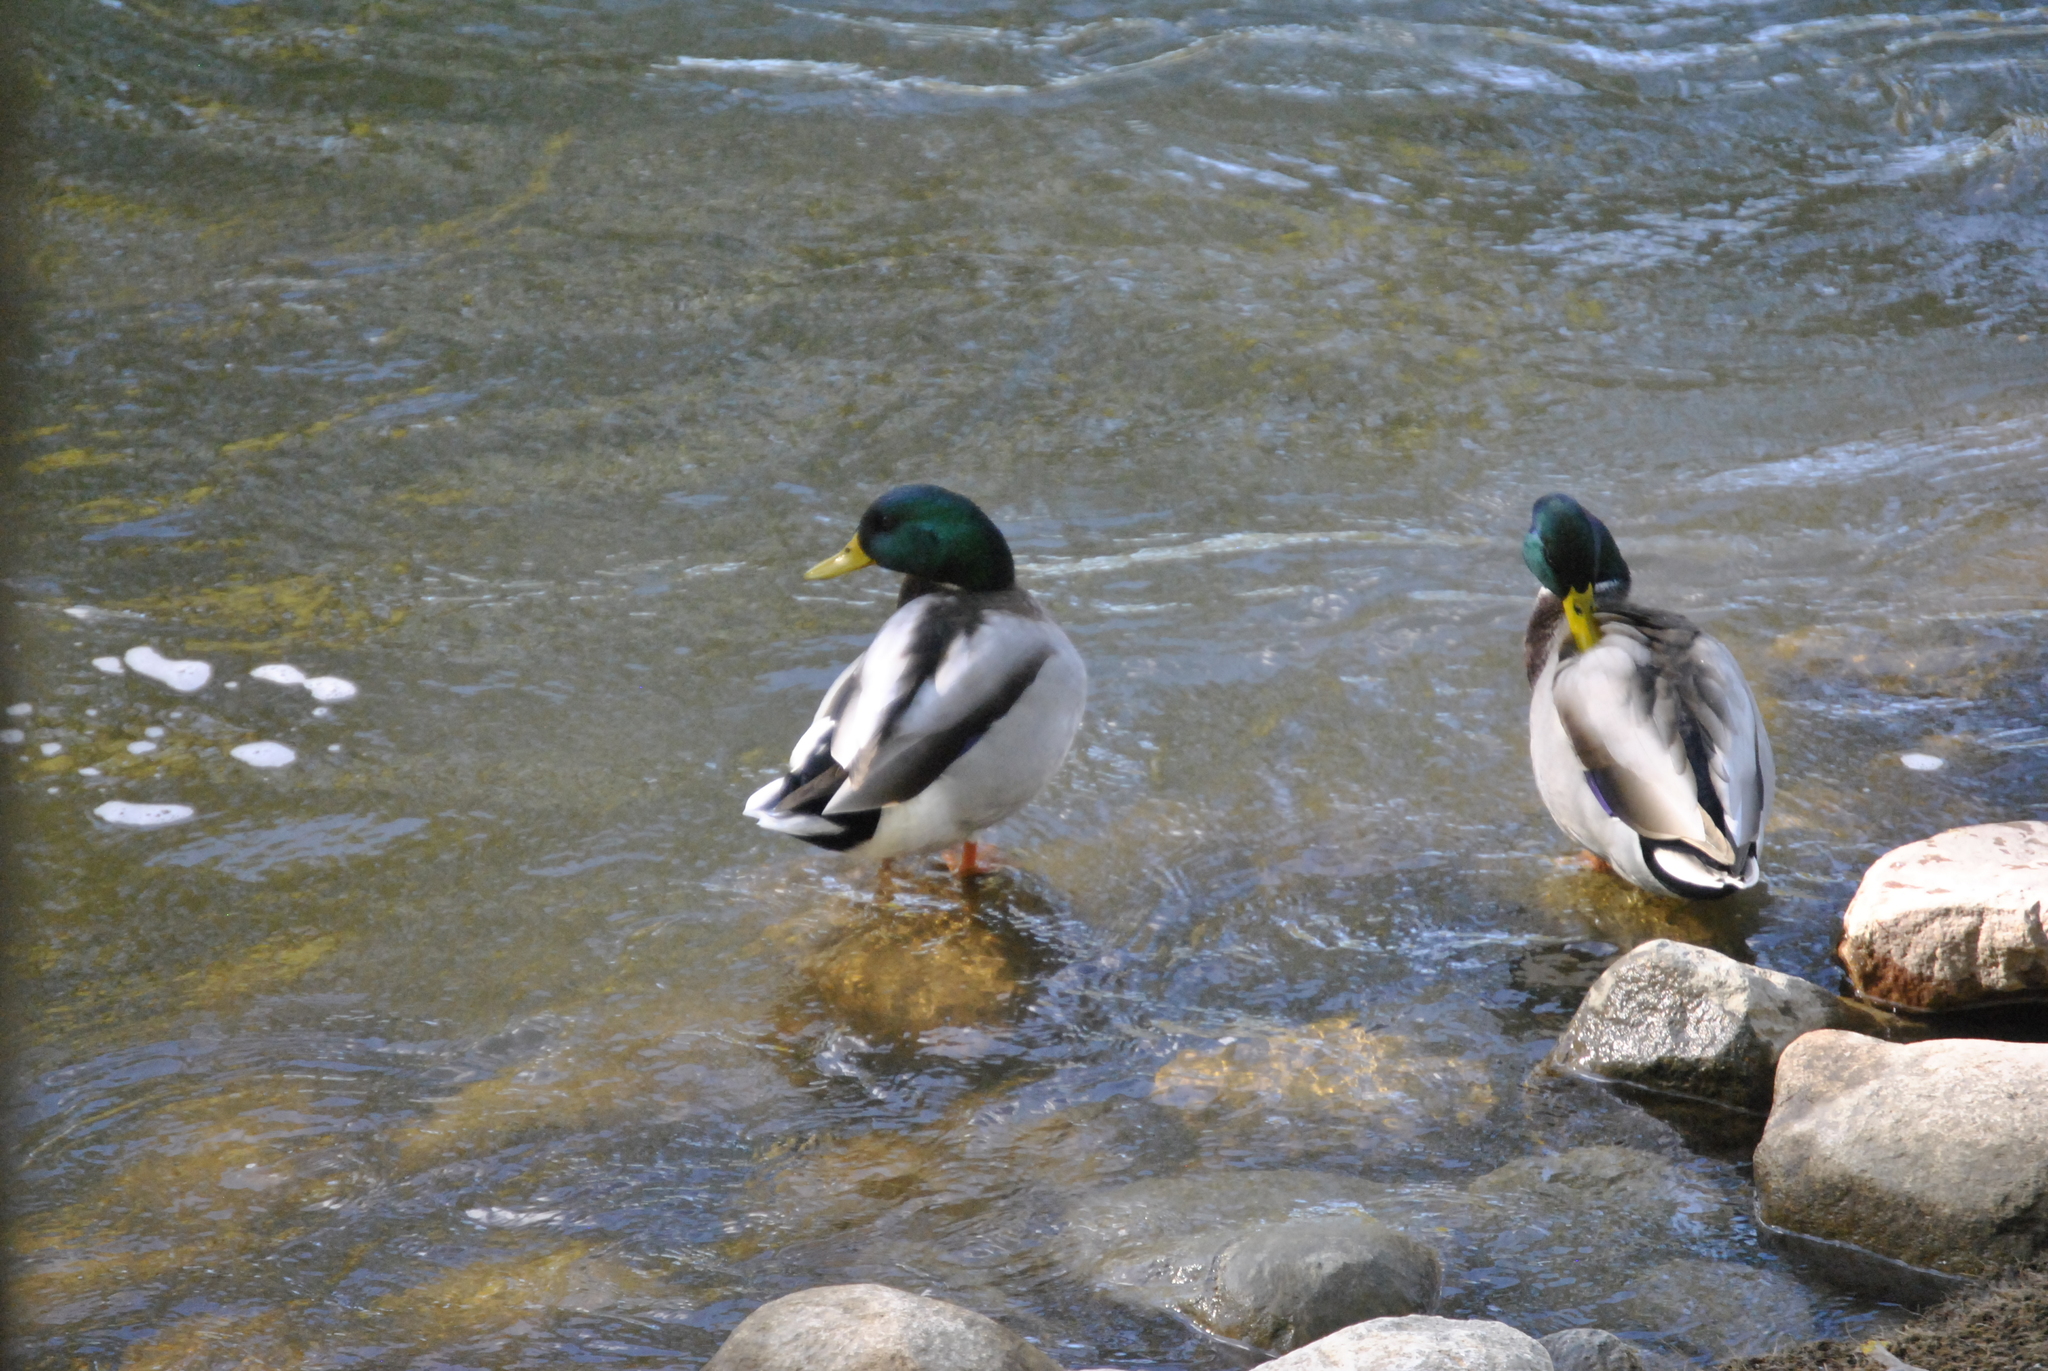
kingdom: Animalia
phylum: Chordata
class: Aves
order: Anseriformes
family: Anatidae
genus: Anas
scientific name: Anas platyrhynchos
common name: Mallard
